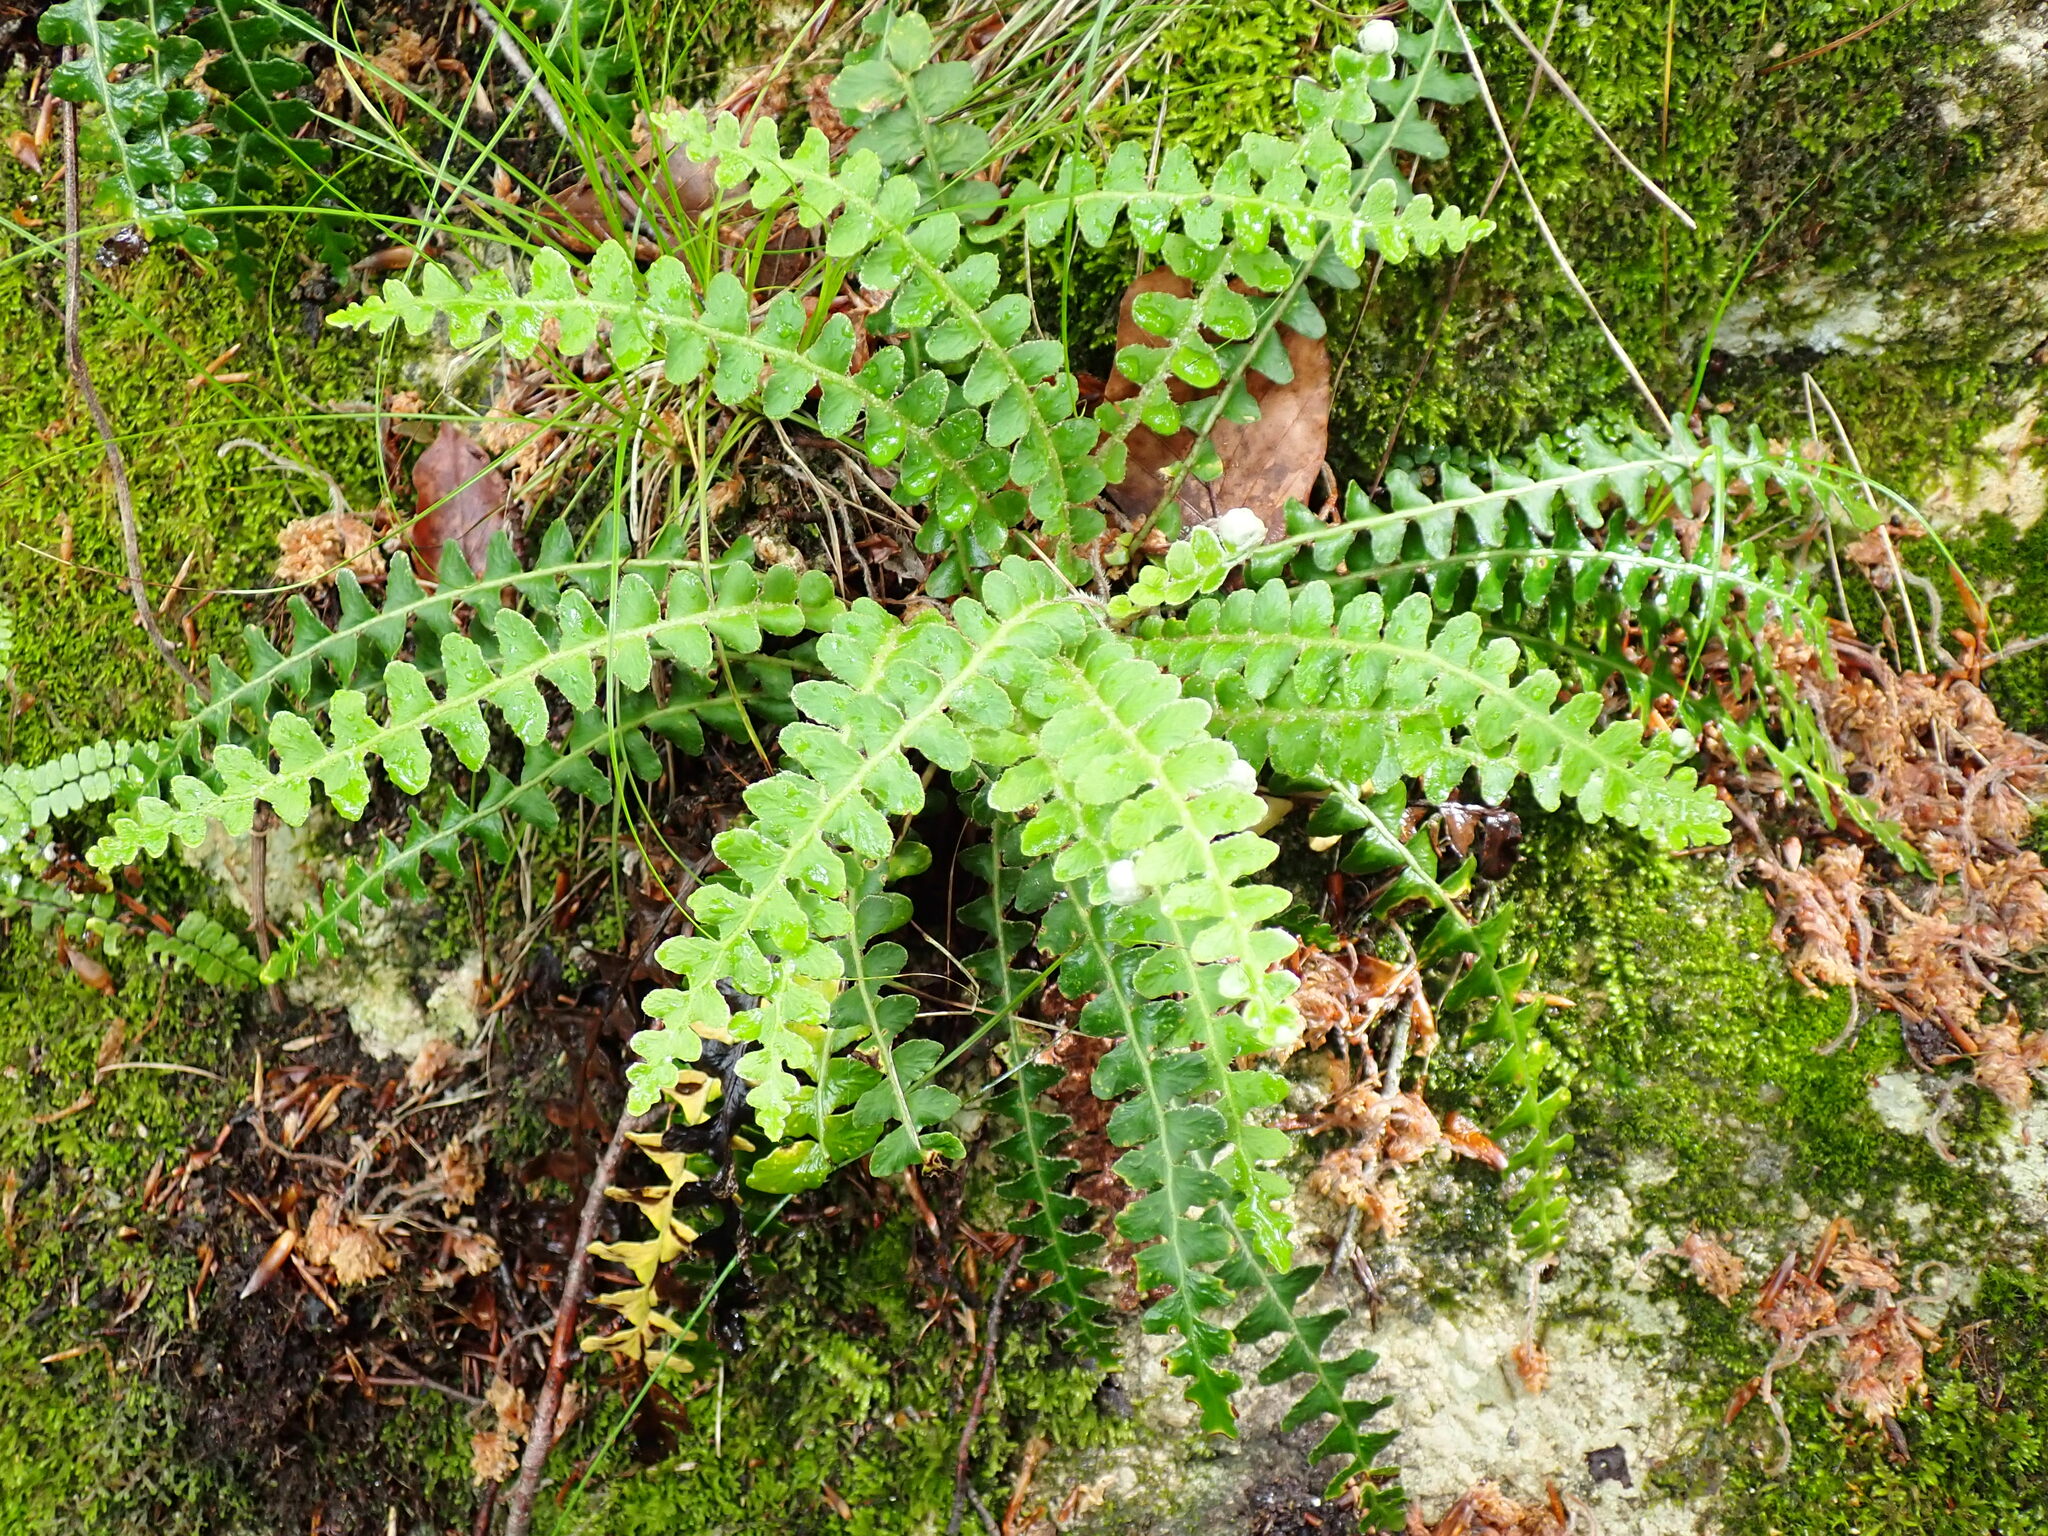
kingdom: Plantae
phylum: Tracheophyta
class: Polypodiopsida
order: Polypodiales
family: Aspleniaceae
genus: Asplenium
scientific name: Asplenium ceterach
